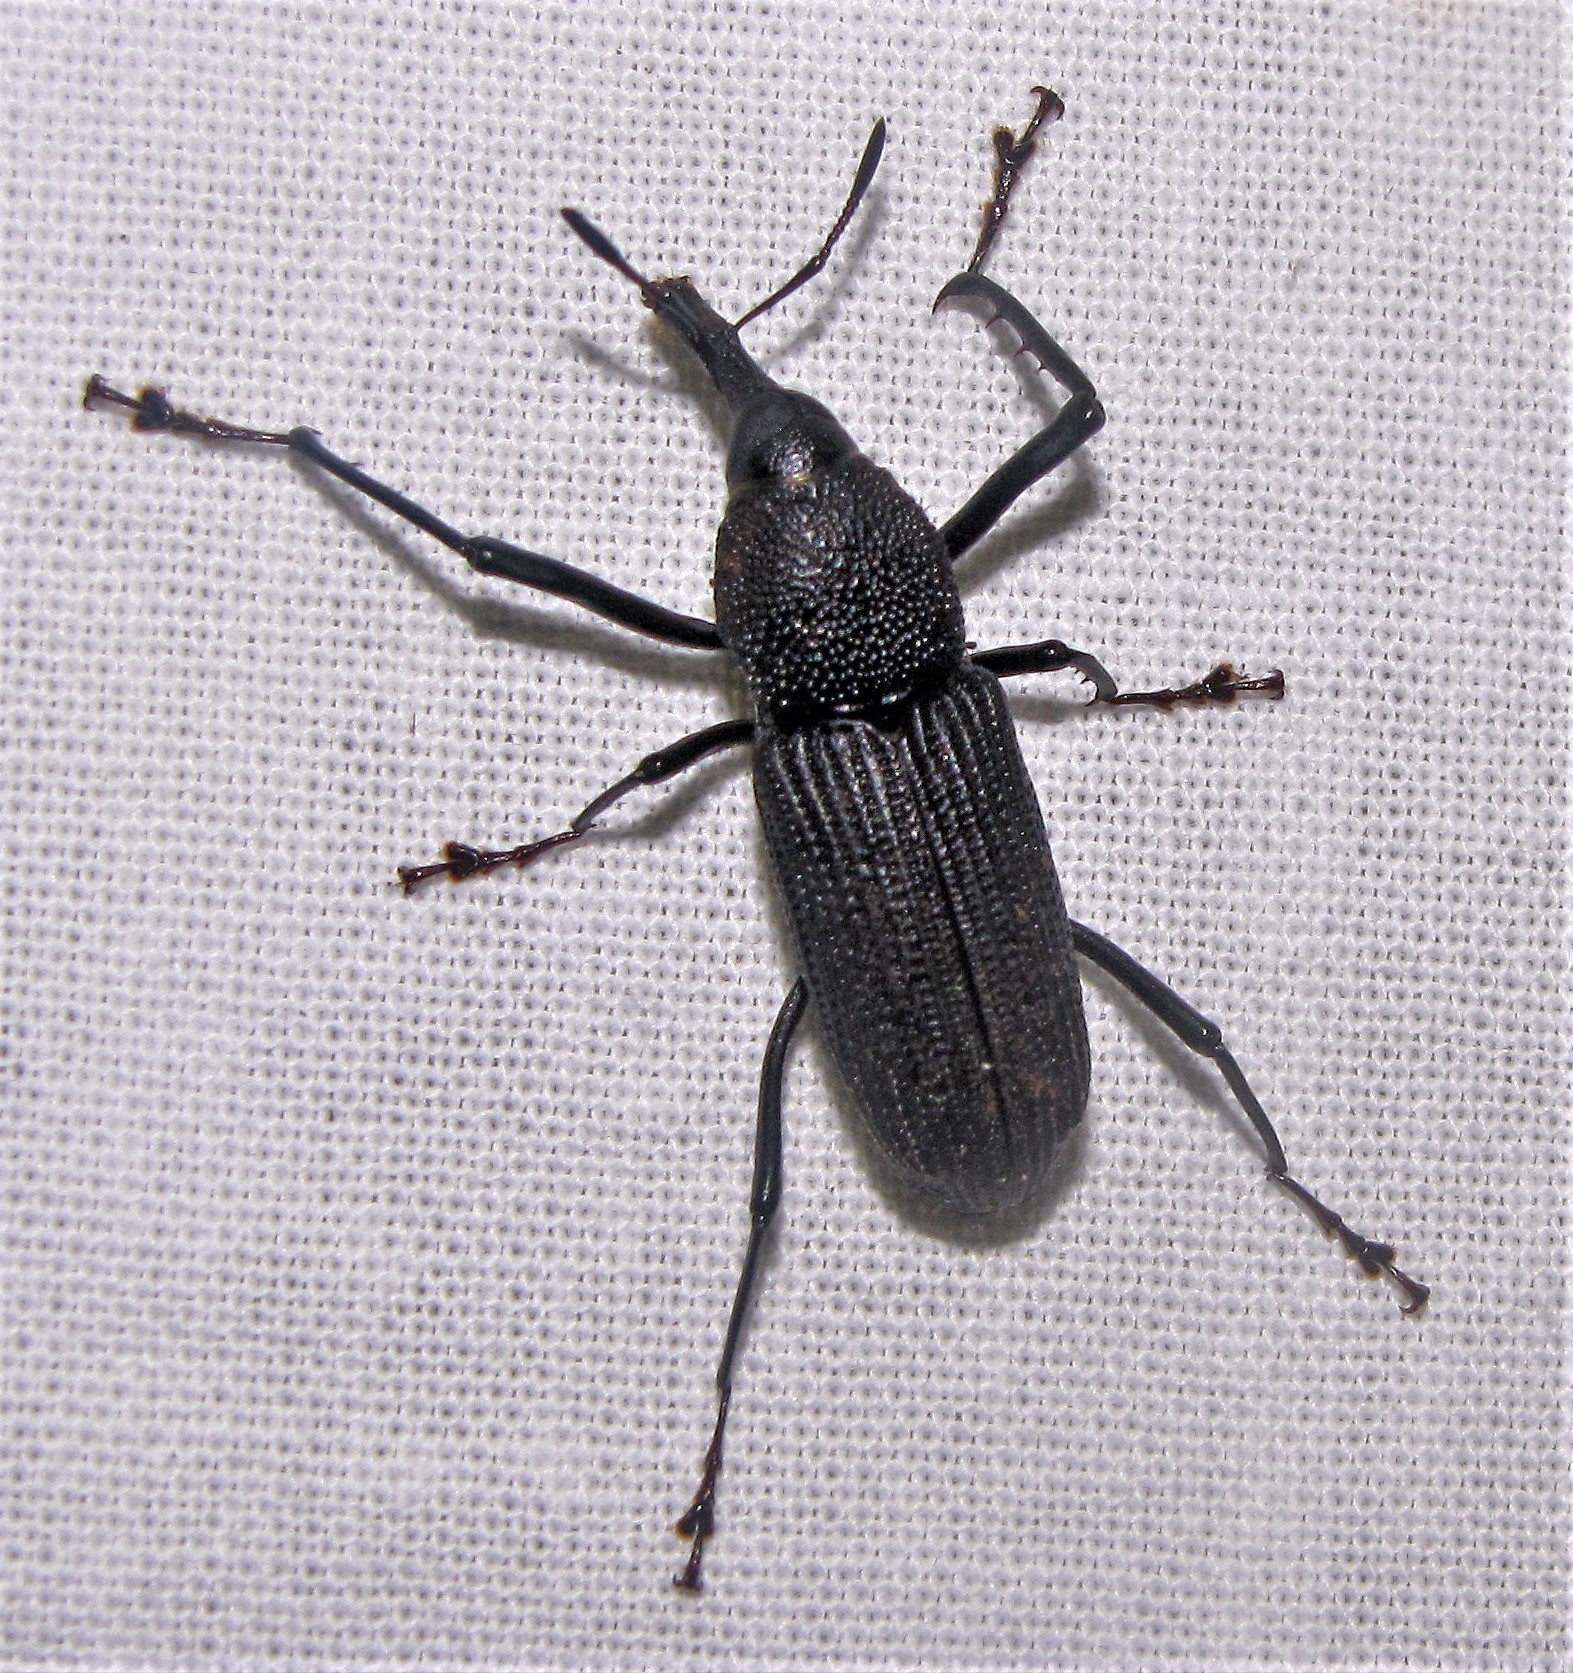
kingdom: Animalia
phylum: Arthropoda
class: Insecta
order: Coleoptera
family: Dryophthoridae
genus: Rhinostomus
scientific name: Rhinostomus barbirostris
